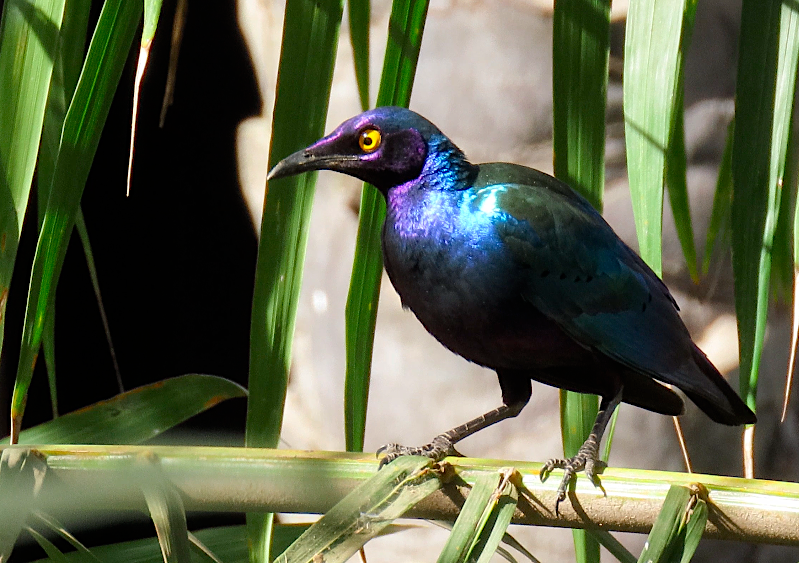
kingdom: Animalia
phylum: Chordata
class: Aves
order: Passeriformes
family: Sturnidae
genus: Lamprotornis
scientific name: Lamprotornis purpureus
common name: Purple starling
